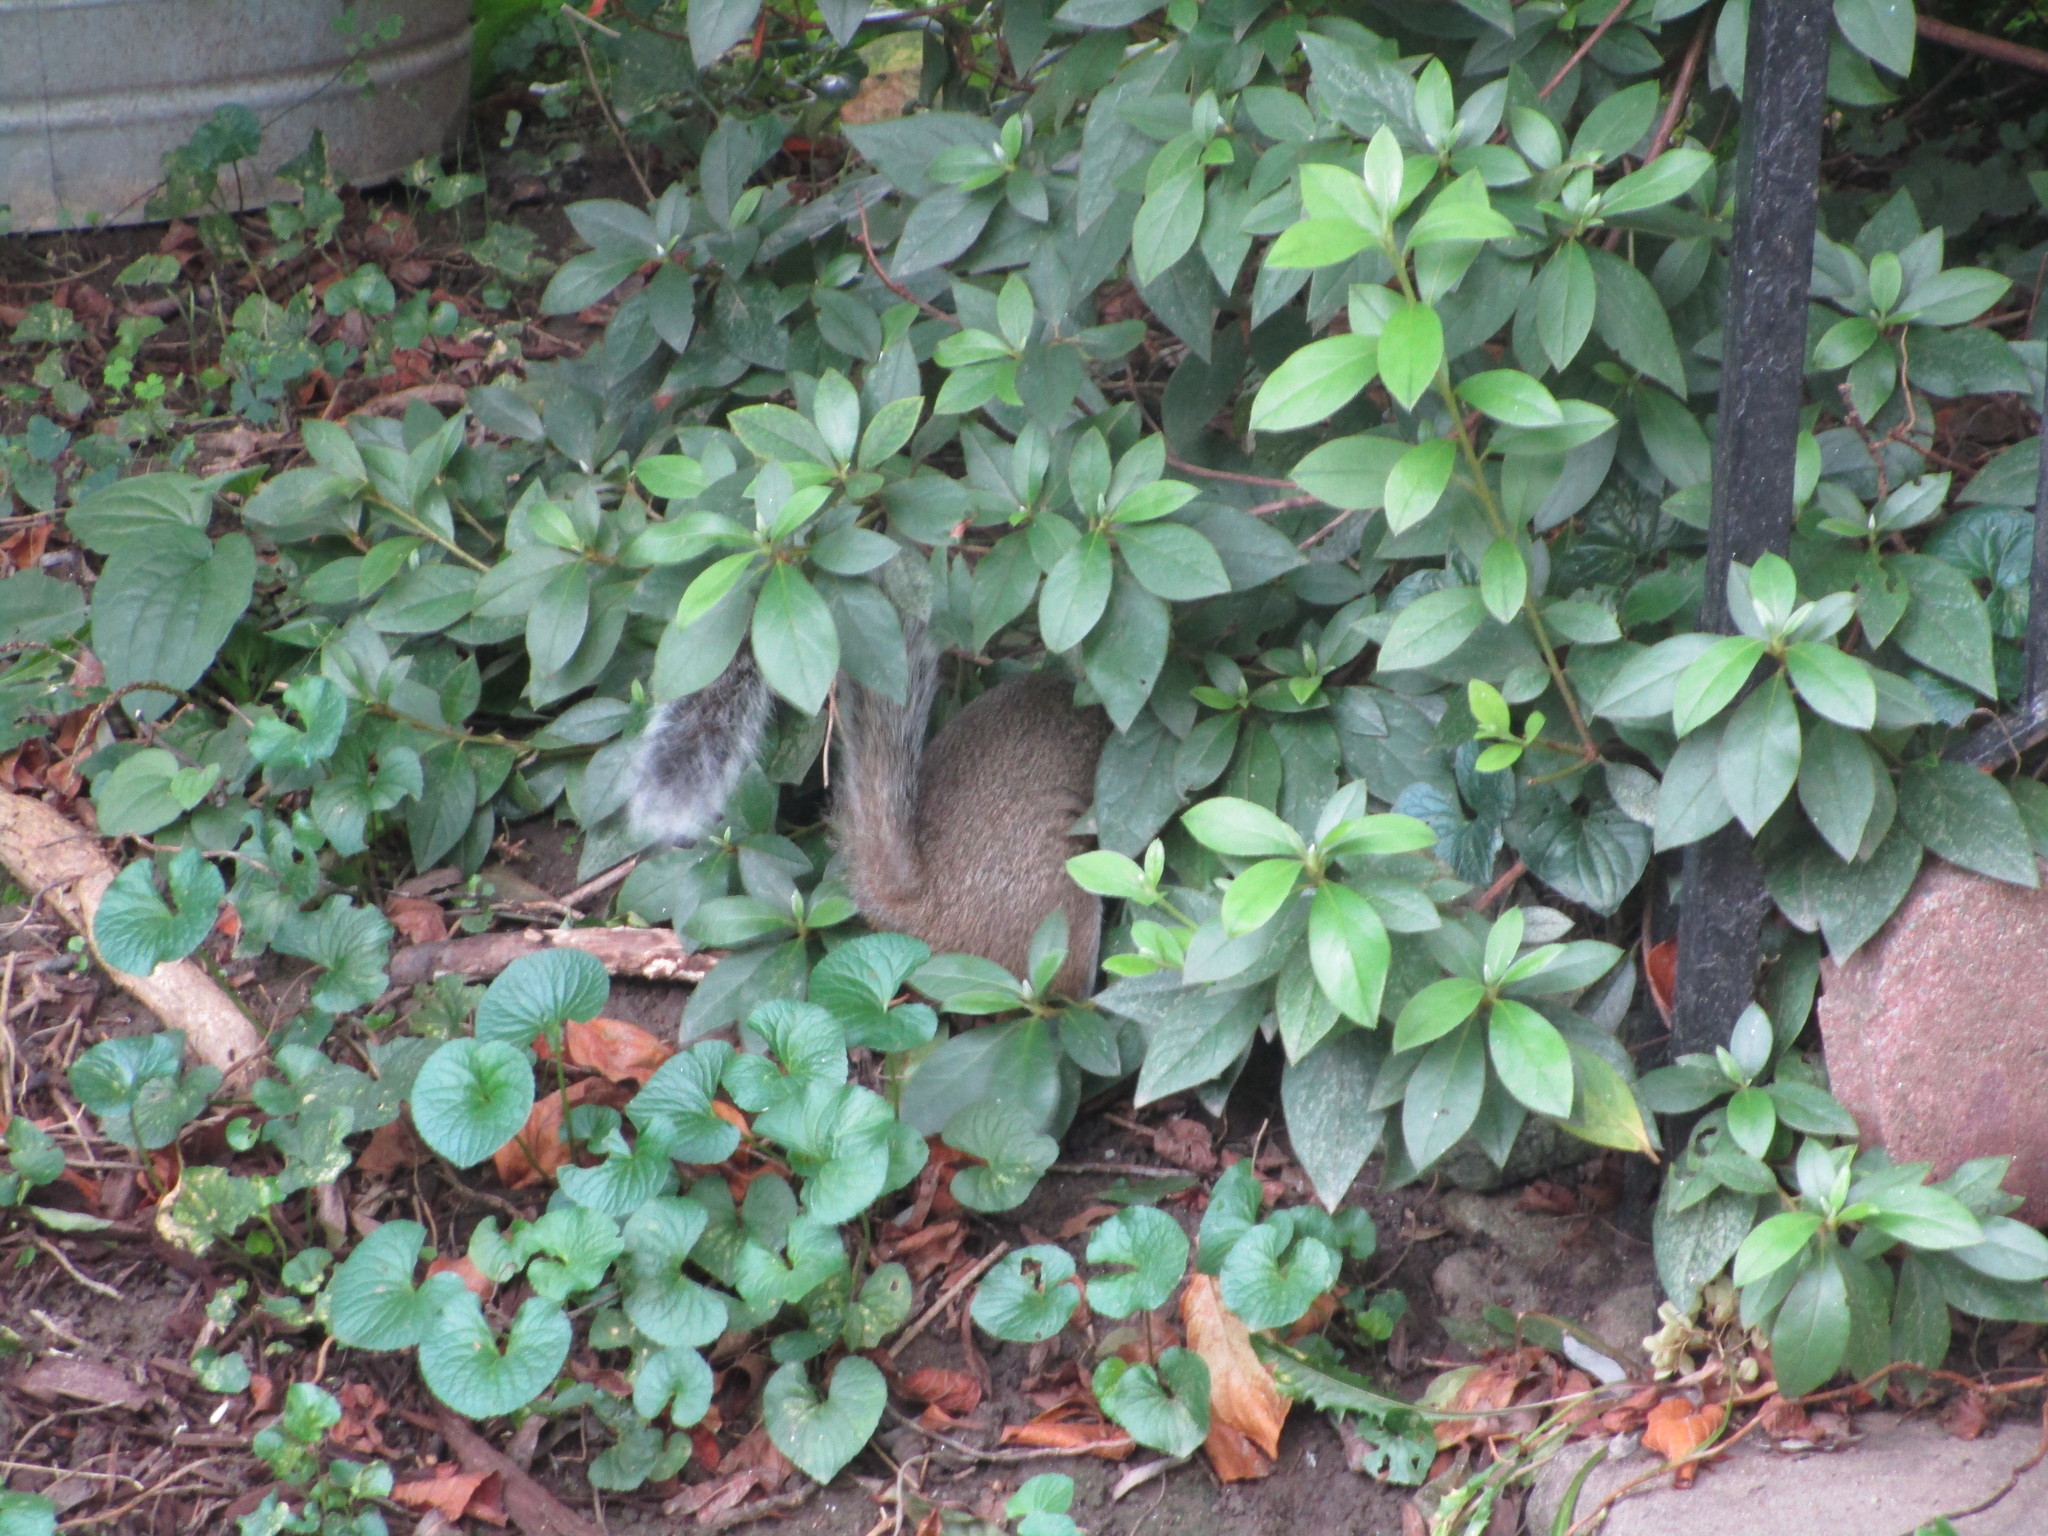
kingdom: Animalia
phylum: Chordata
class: Mammalia
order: Rodentia
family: Sciuridae
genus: Sciurus
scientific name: Sciurus carolinensis
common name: Eastern gray squirrel
